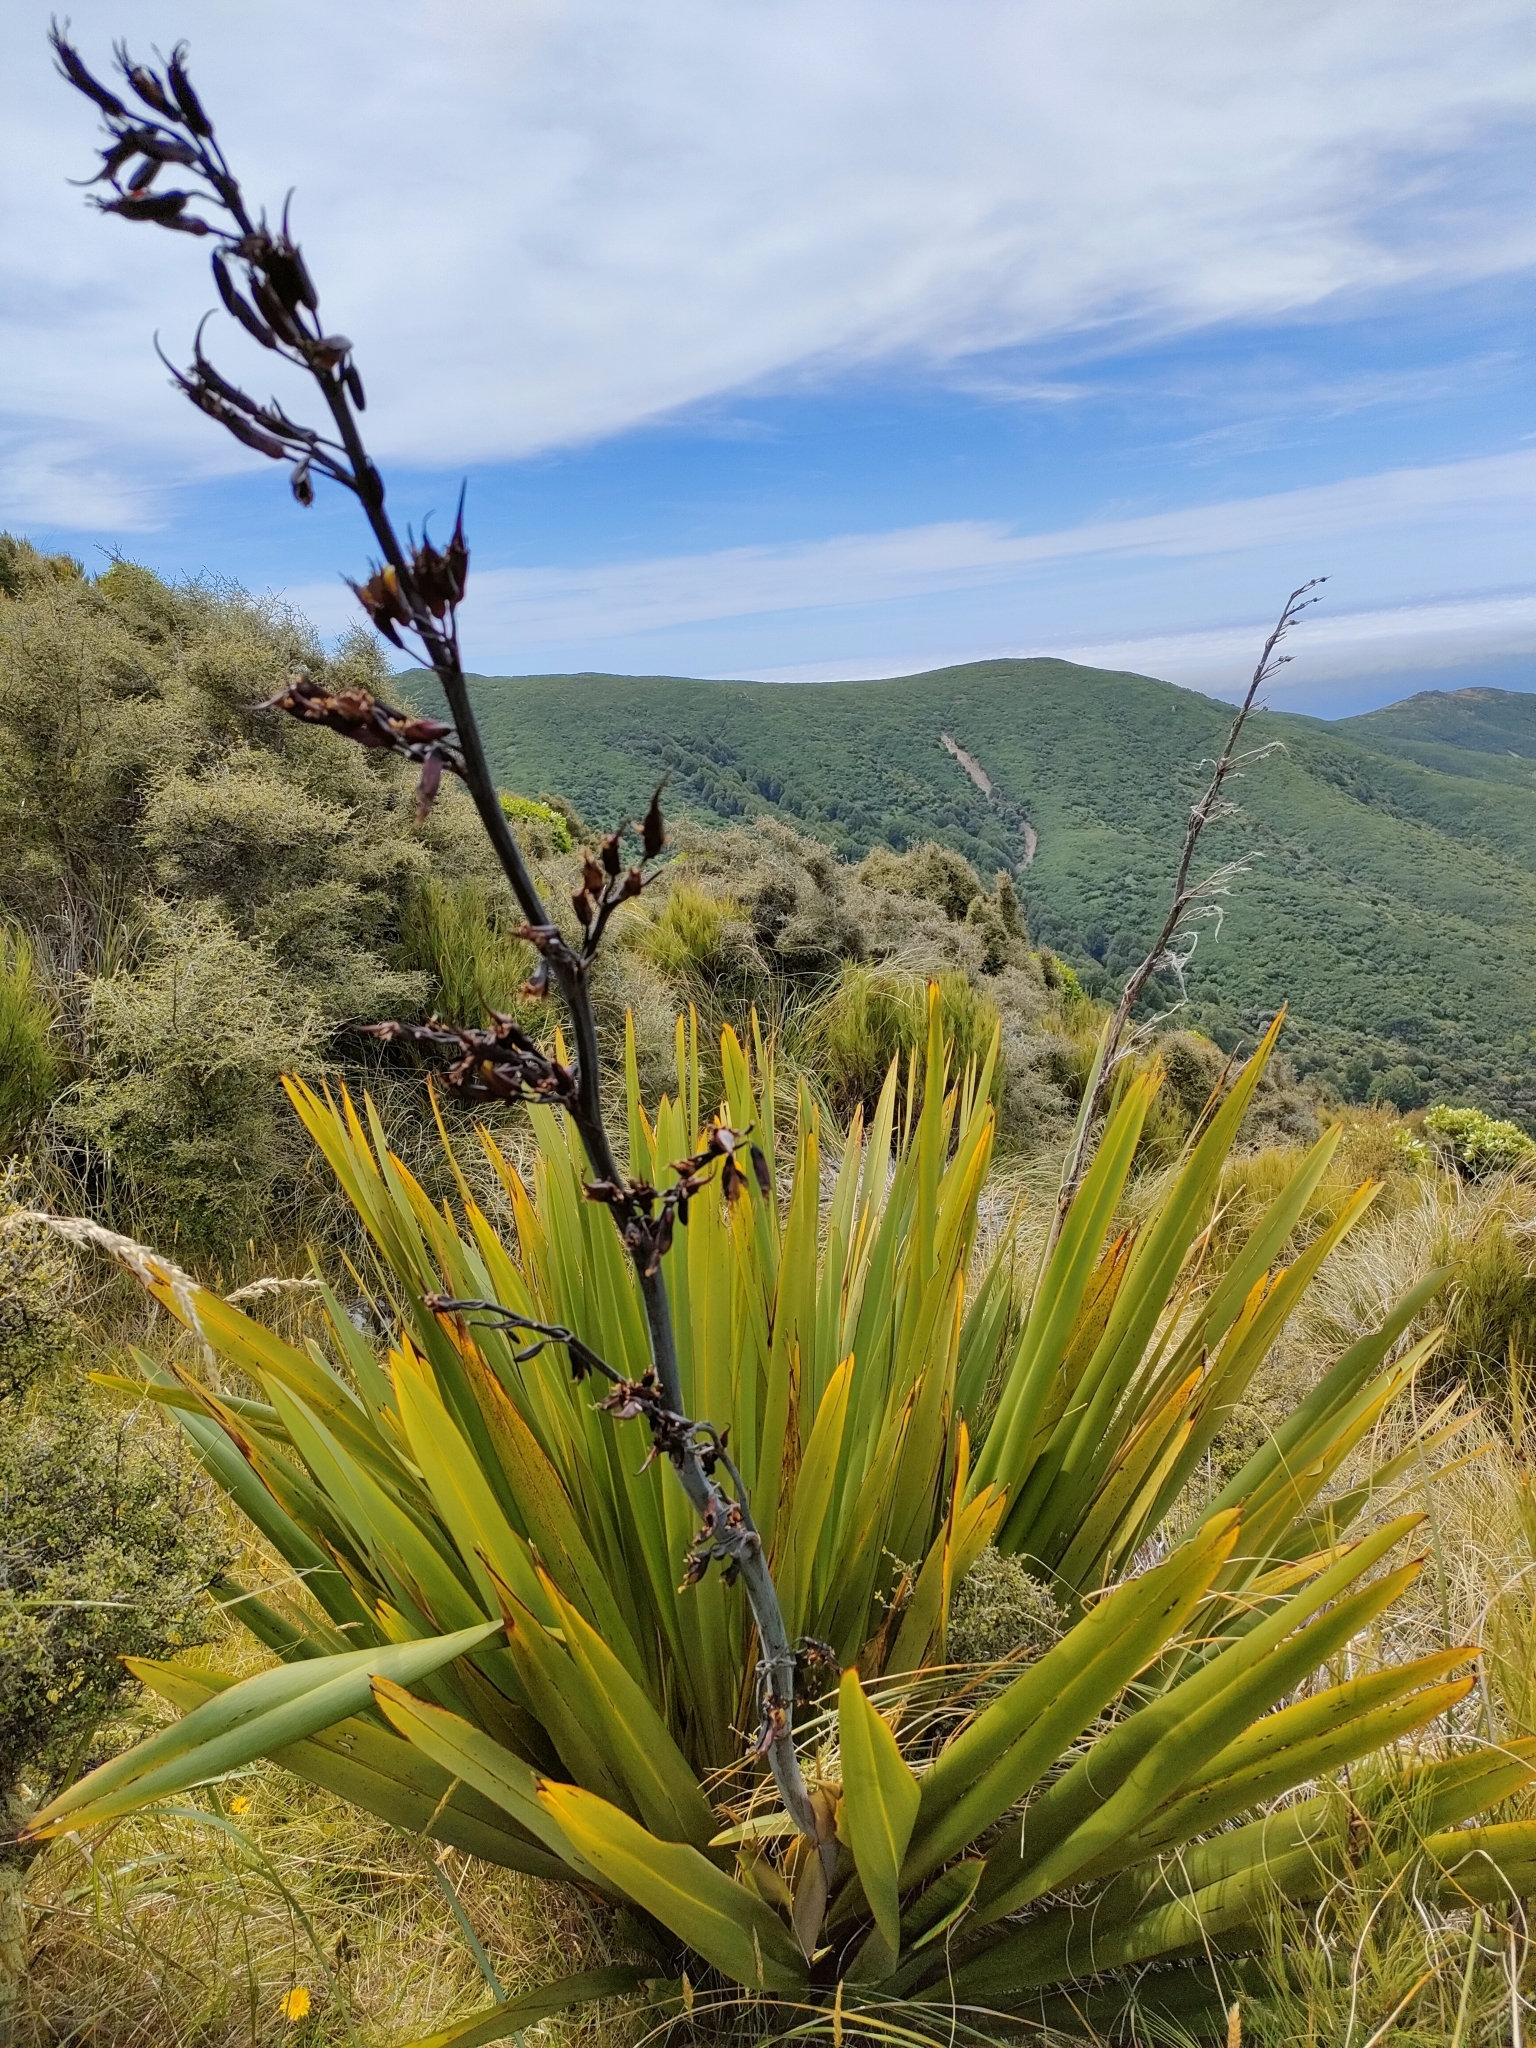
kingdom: Plantae
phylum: Tracheophyta
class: Liliopsida
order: Asparagales
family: Asphodelaceae
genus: Phormium
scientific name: Phormium colensoi
